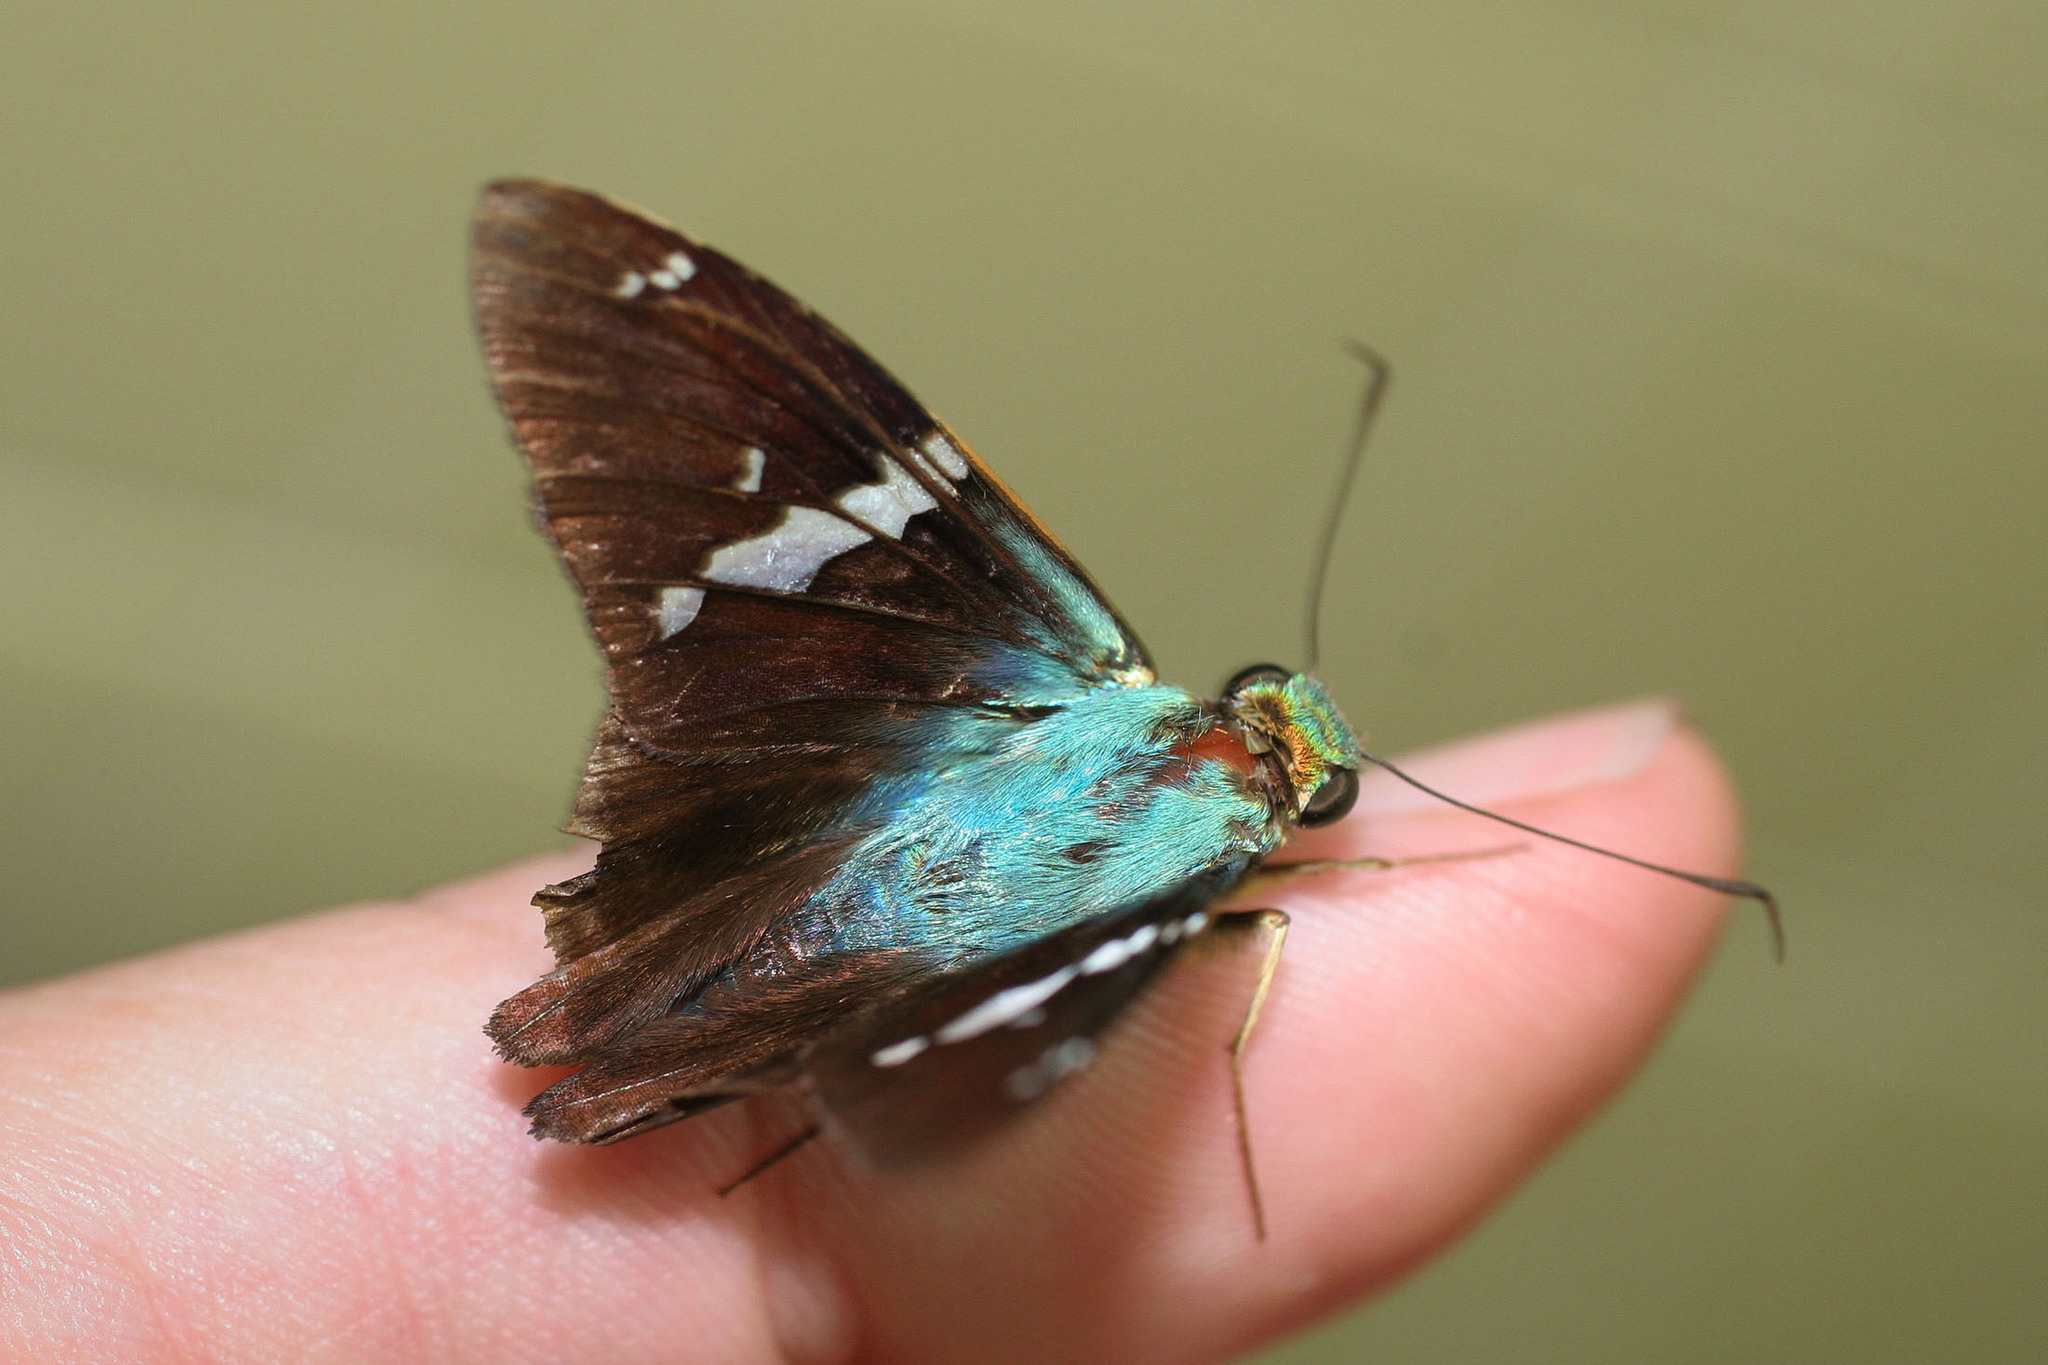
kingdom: Animalia
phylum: Arthropoda
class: Insecta
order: Lepidoptera
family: Hesperiidae
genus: Urbanus
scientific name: Urbanus
